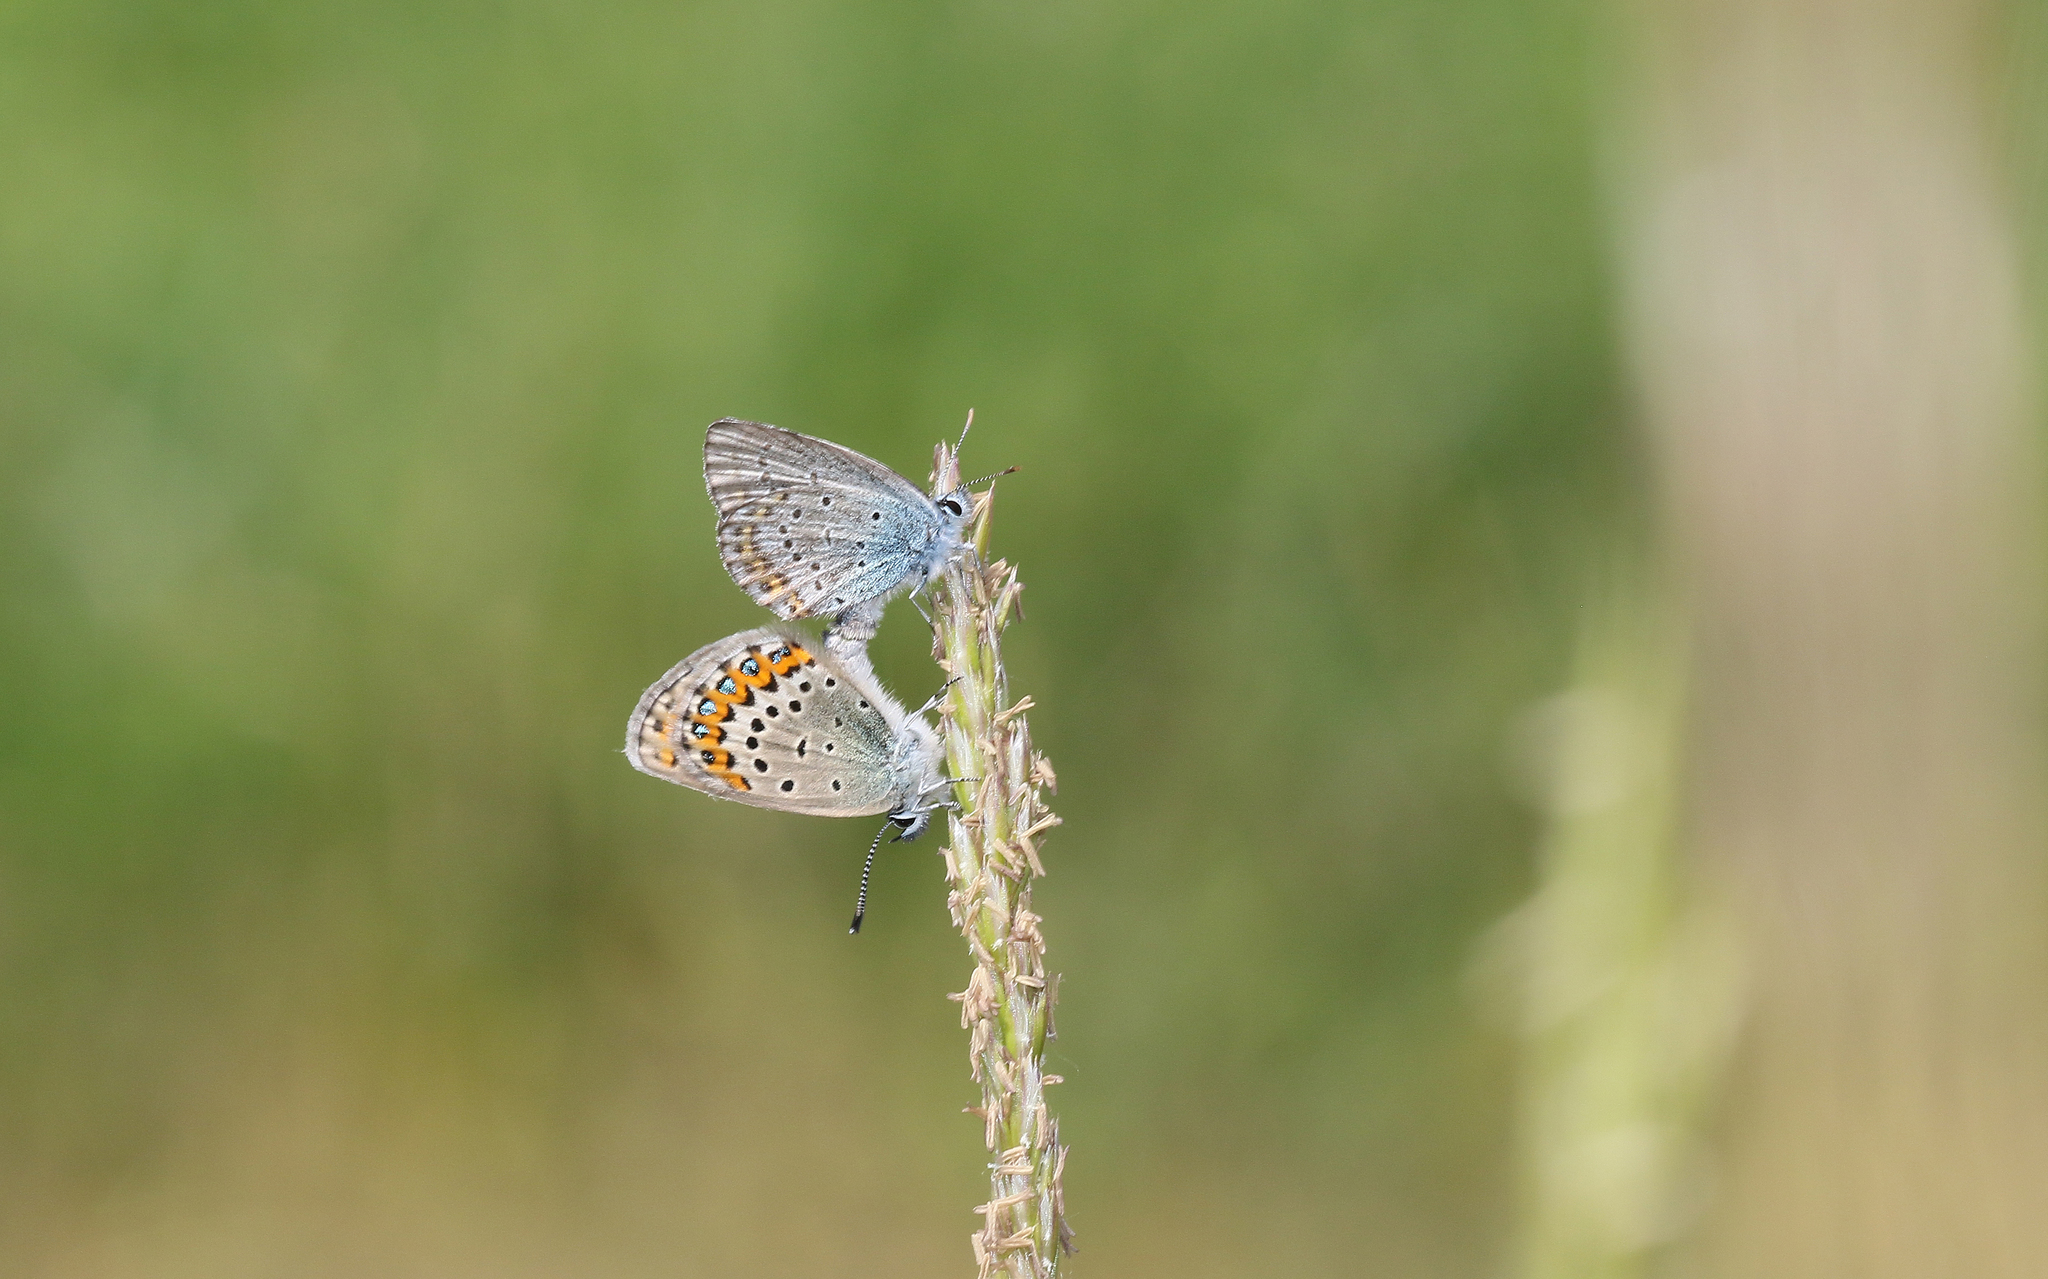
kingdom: Animalia
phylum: Arthropoda
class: Insecta
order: Lepidoptera
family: Lycaenidae
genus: Lycaeides
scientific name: Lycaeides idas
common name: Northern blue
